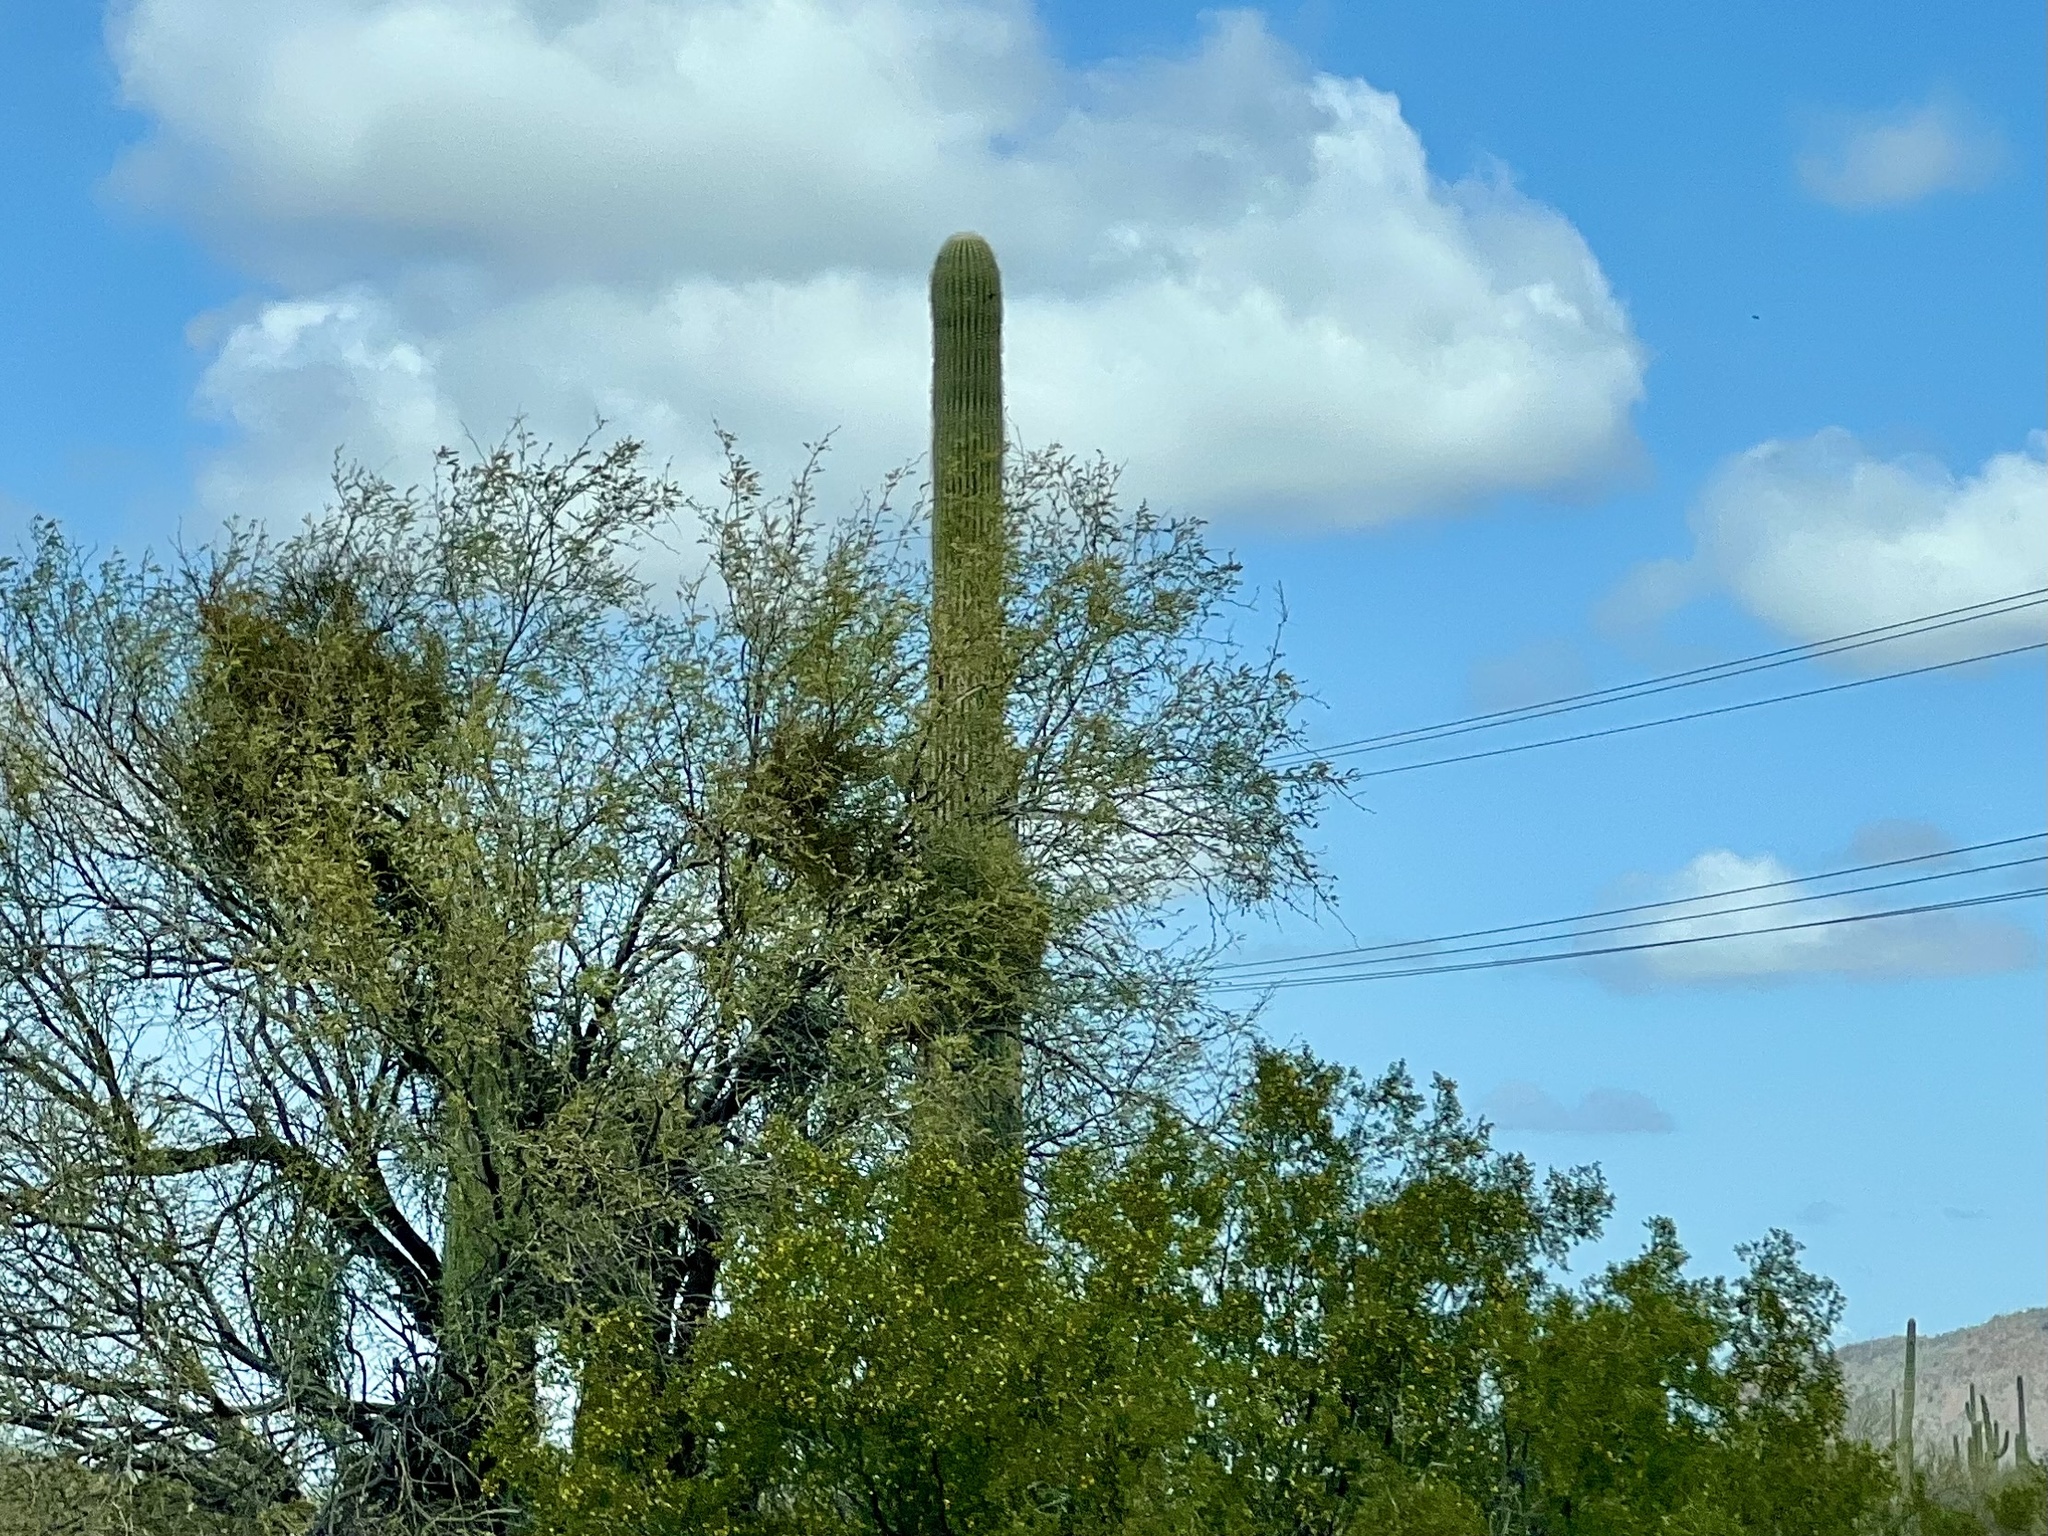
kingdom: Plantae
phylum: Tracheophyta
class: Magnoliopsida
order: Caryophyllales
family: Cactaceae
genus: Carnegiea
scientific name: Carnegiea gigantea
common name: Saguaro
